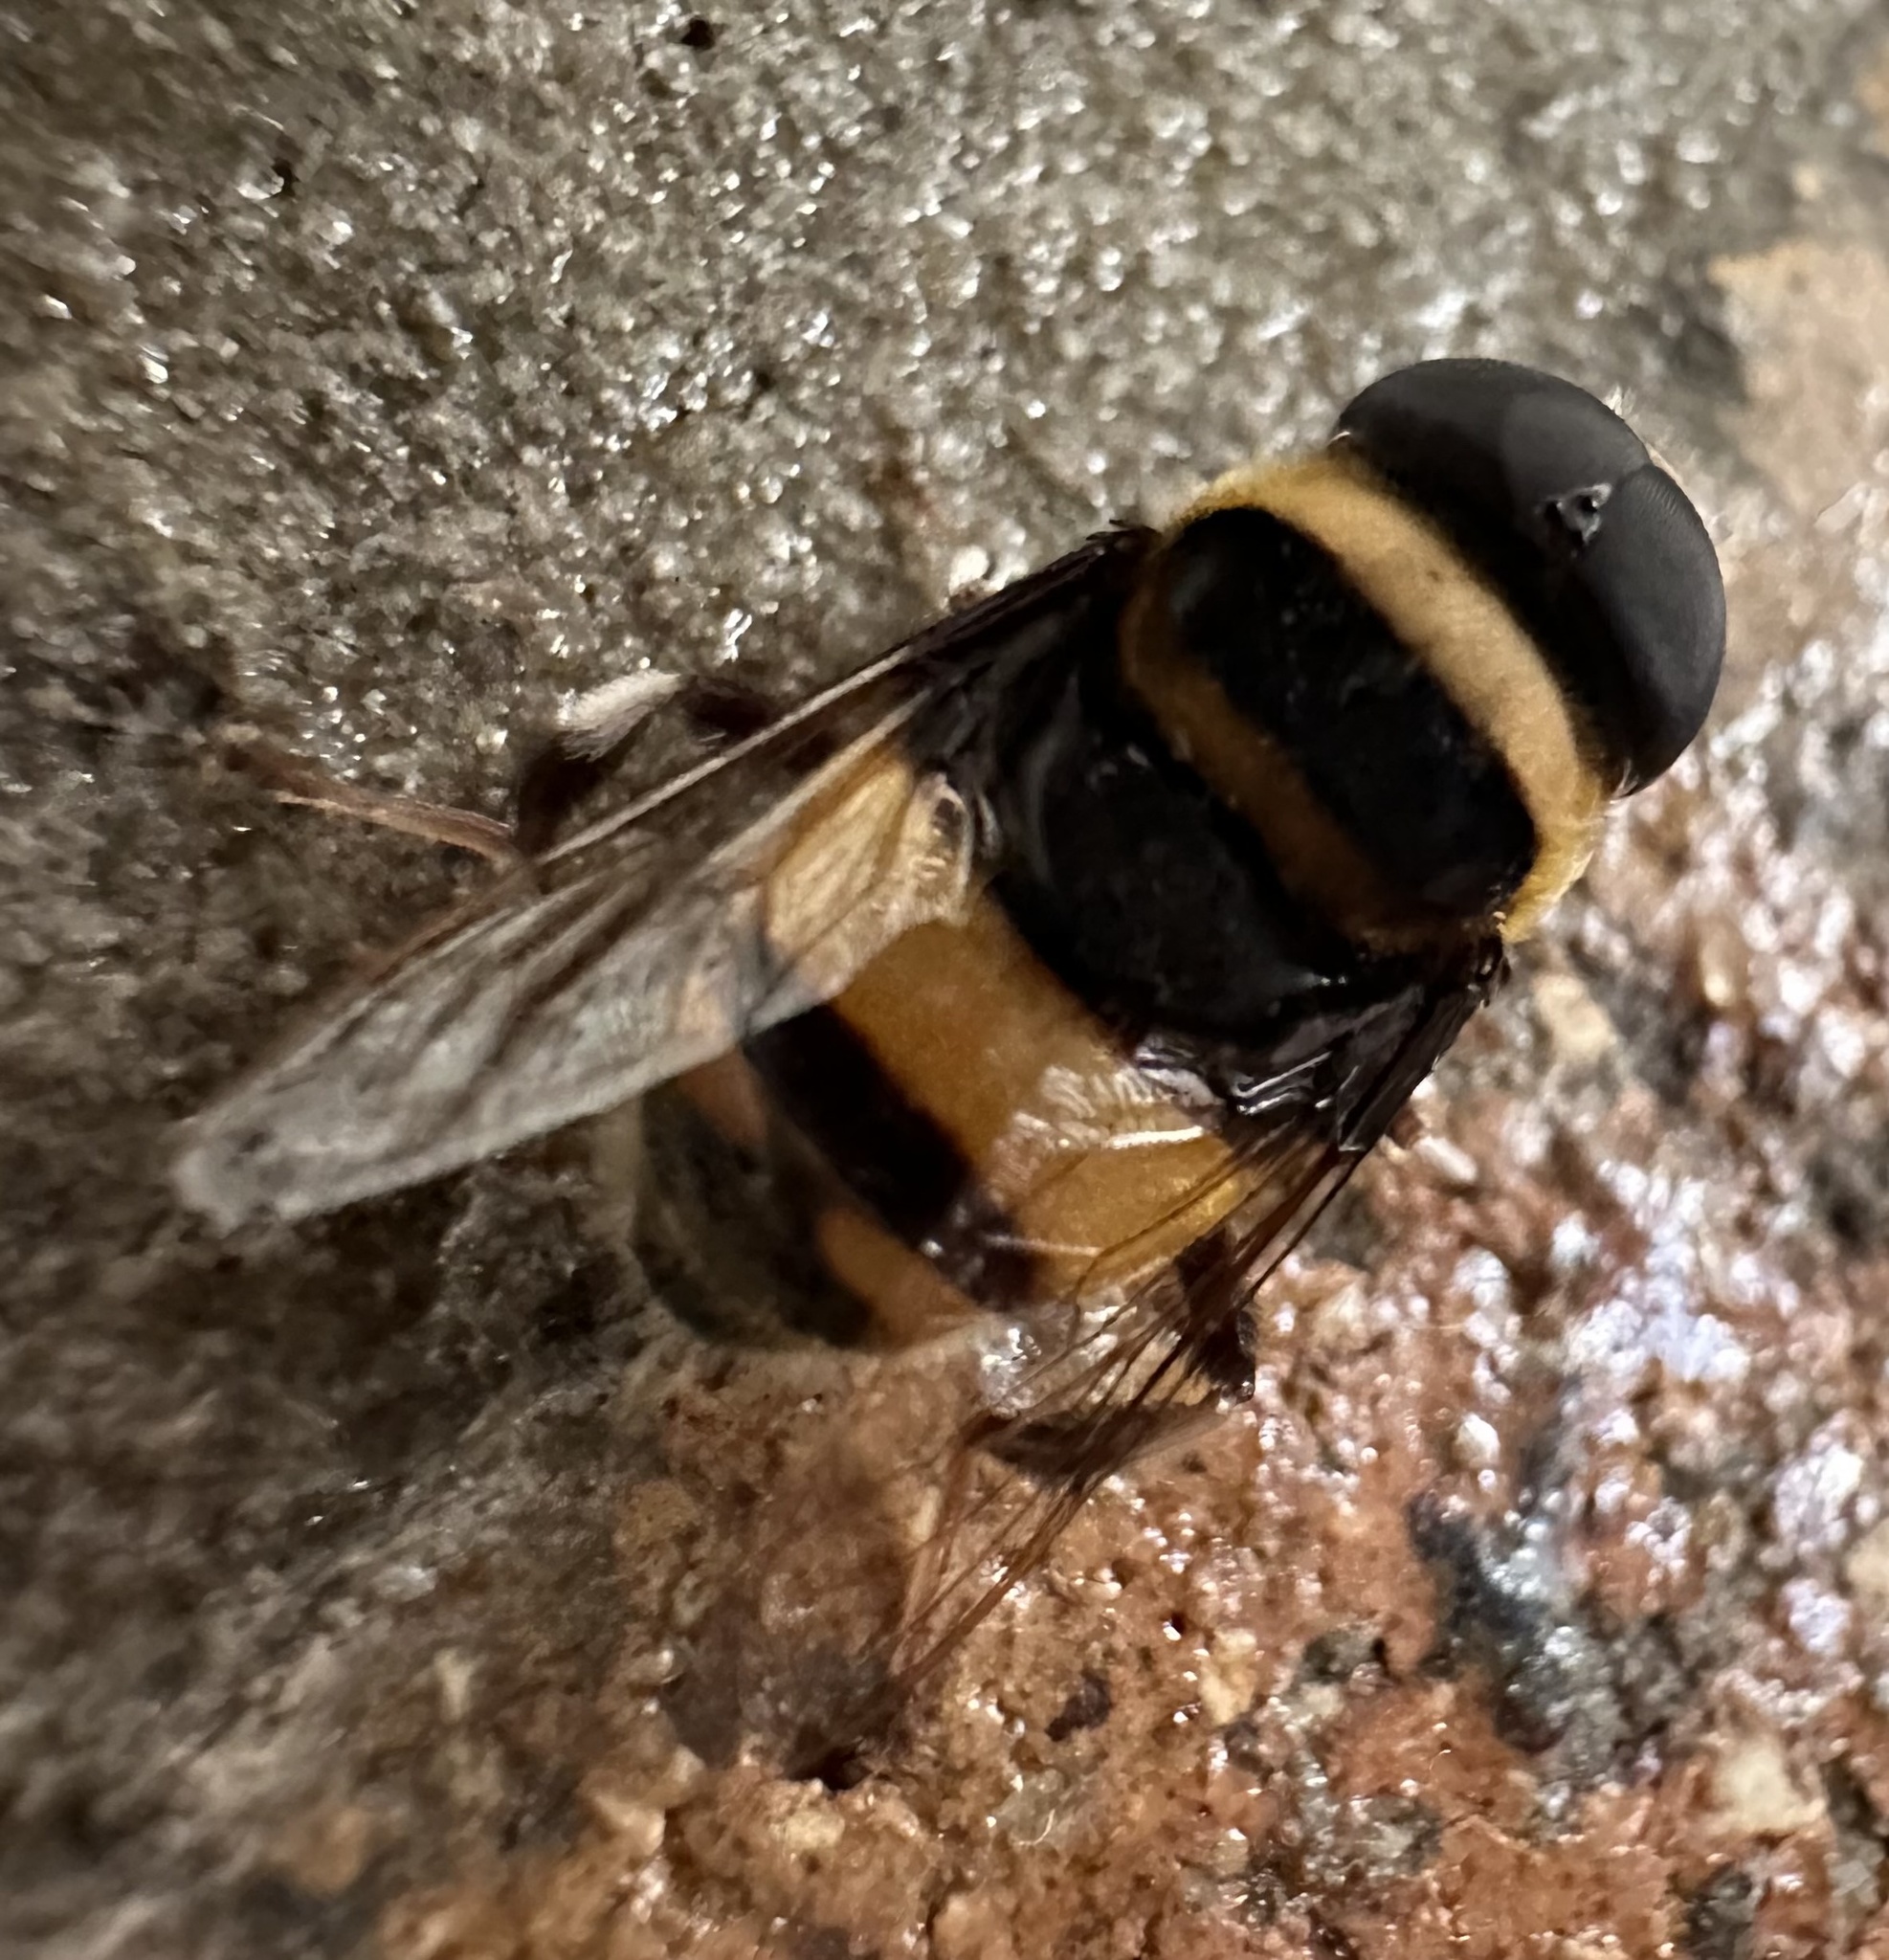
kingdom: Animalia
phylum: Arthropoda
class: Insecta
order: Diptera
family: Syrphidae
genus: Phytomia
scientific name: Phytomia curta
